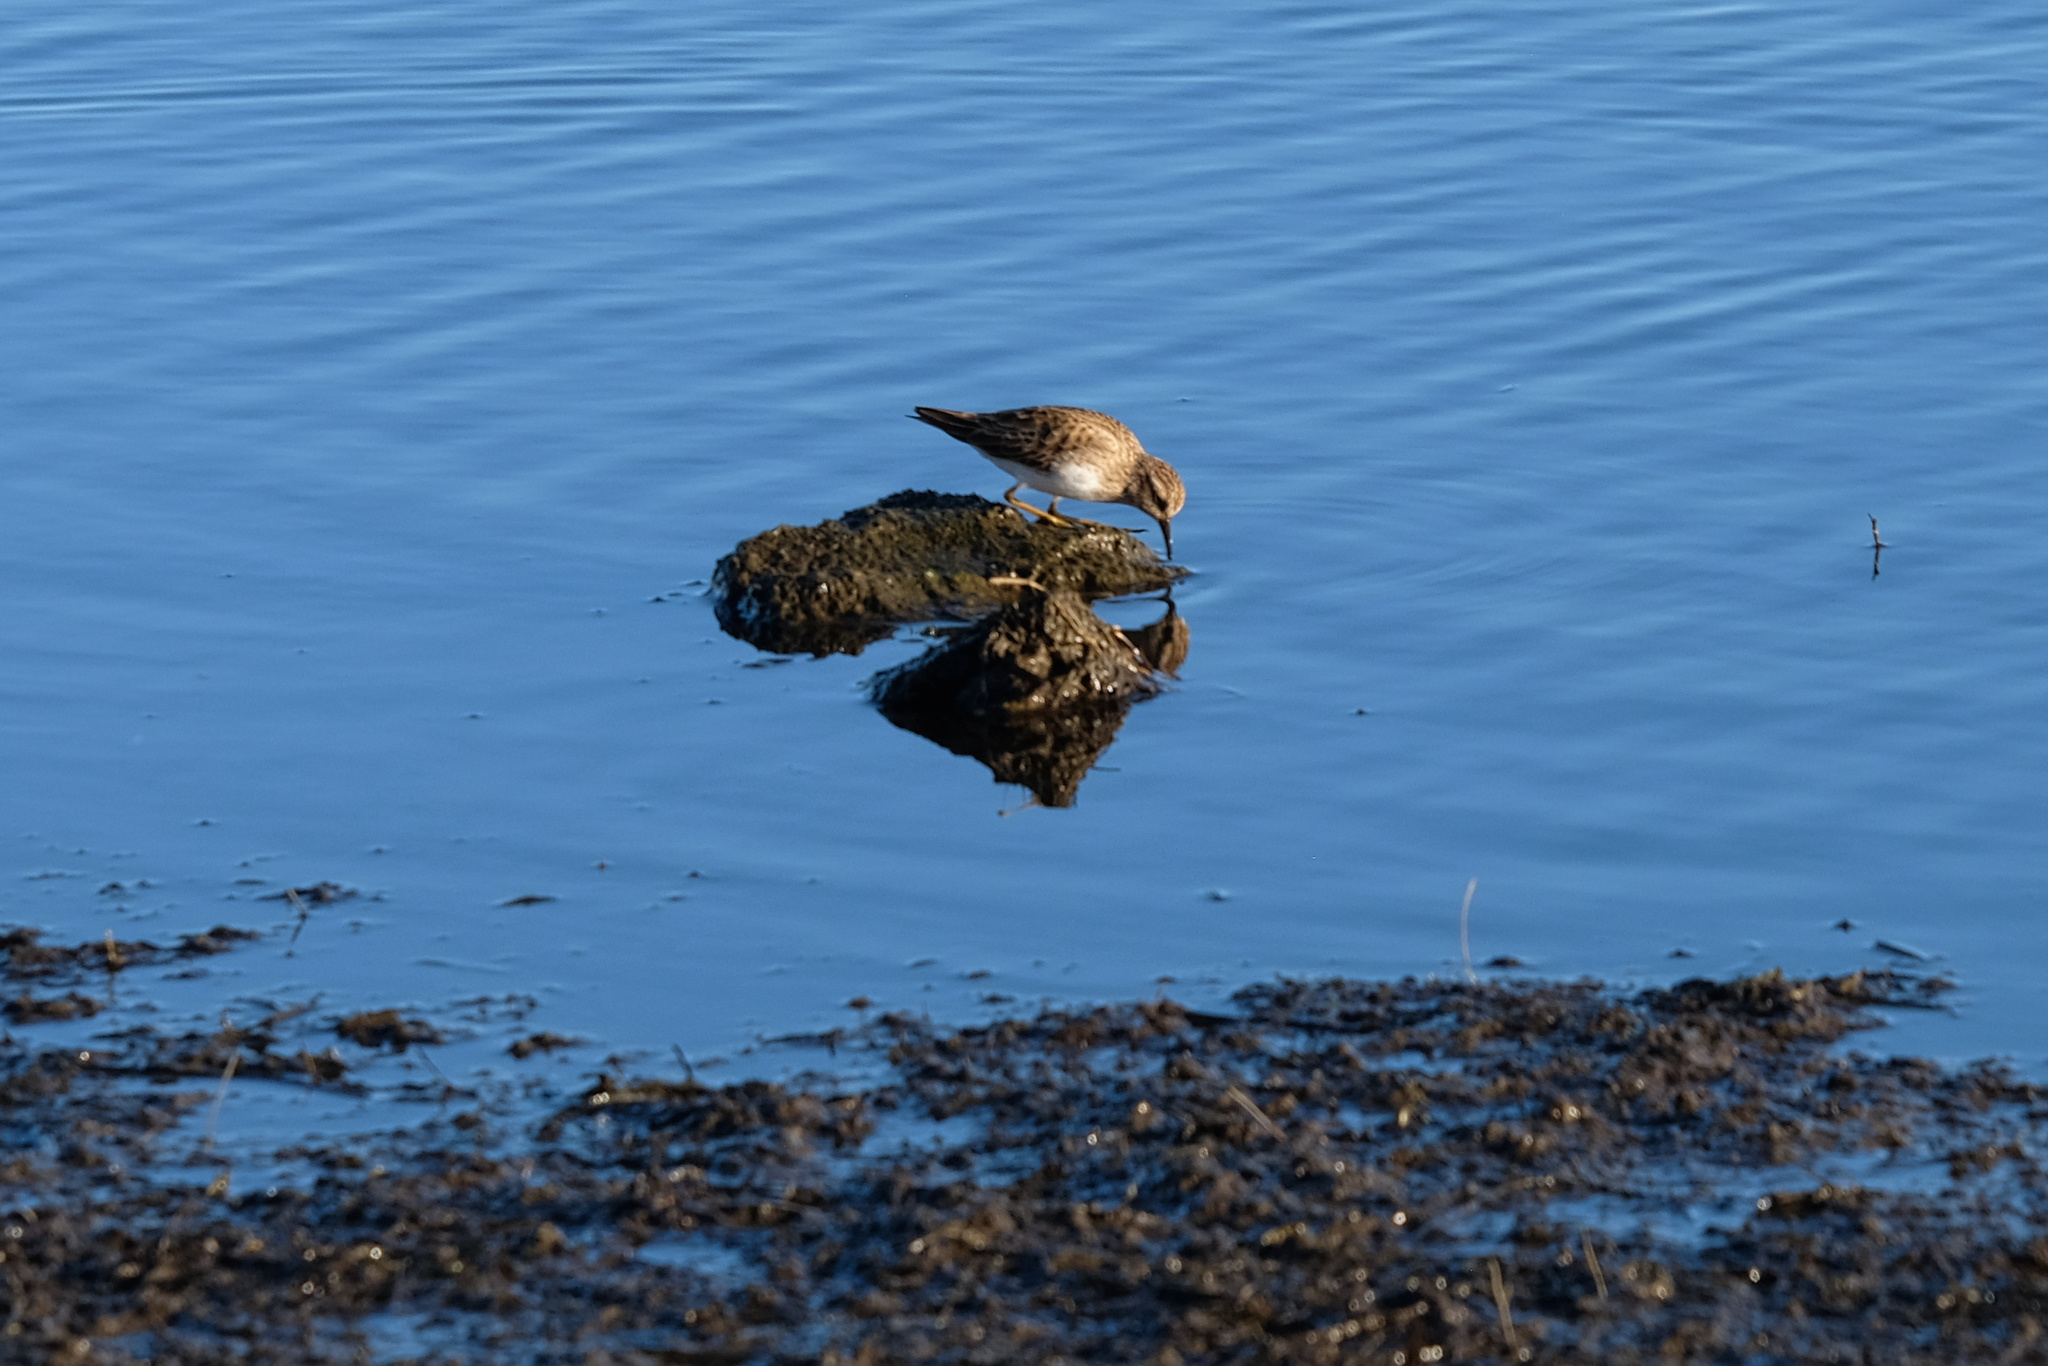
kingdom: Animalia
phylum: Chordata
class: Aves
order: Charadriiformes
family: Scolopacidae
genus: Calidris
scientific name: Calidris minutilla
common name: Least sandpiper
